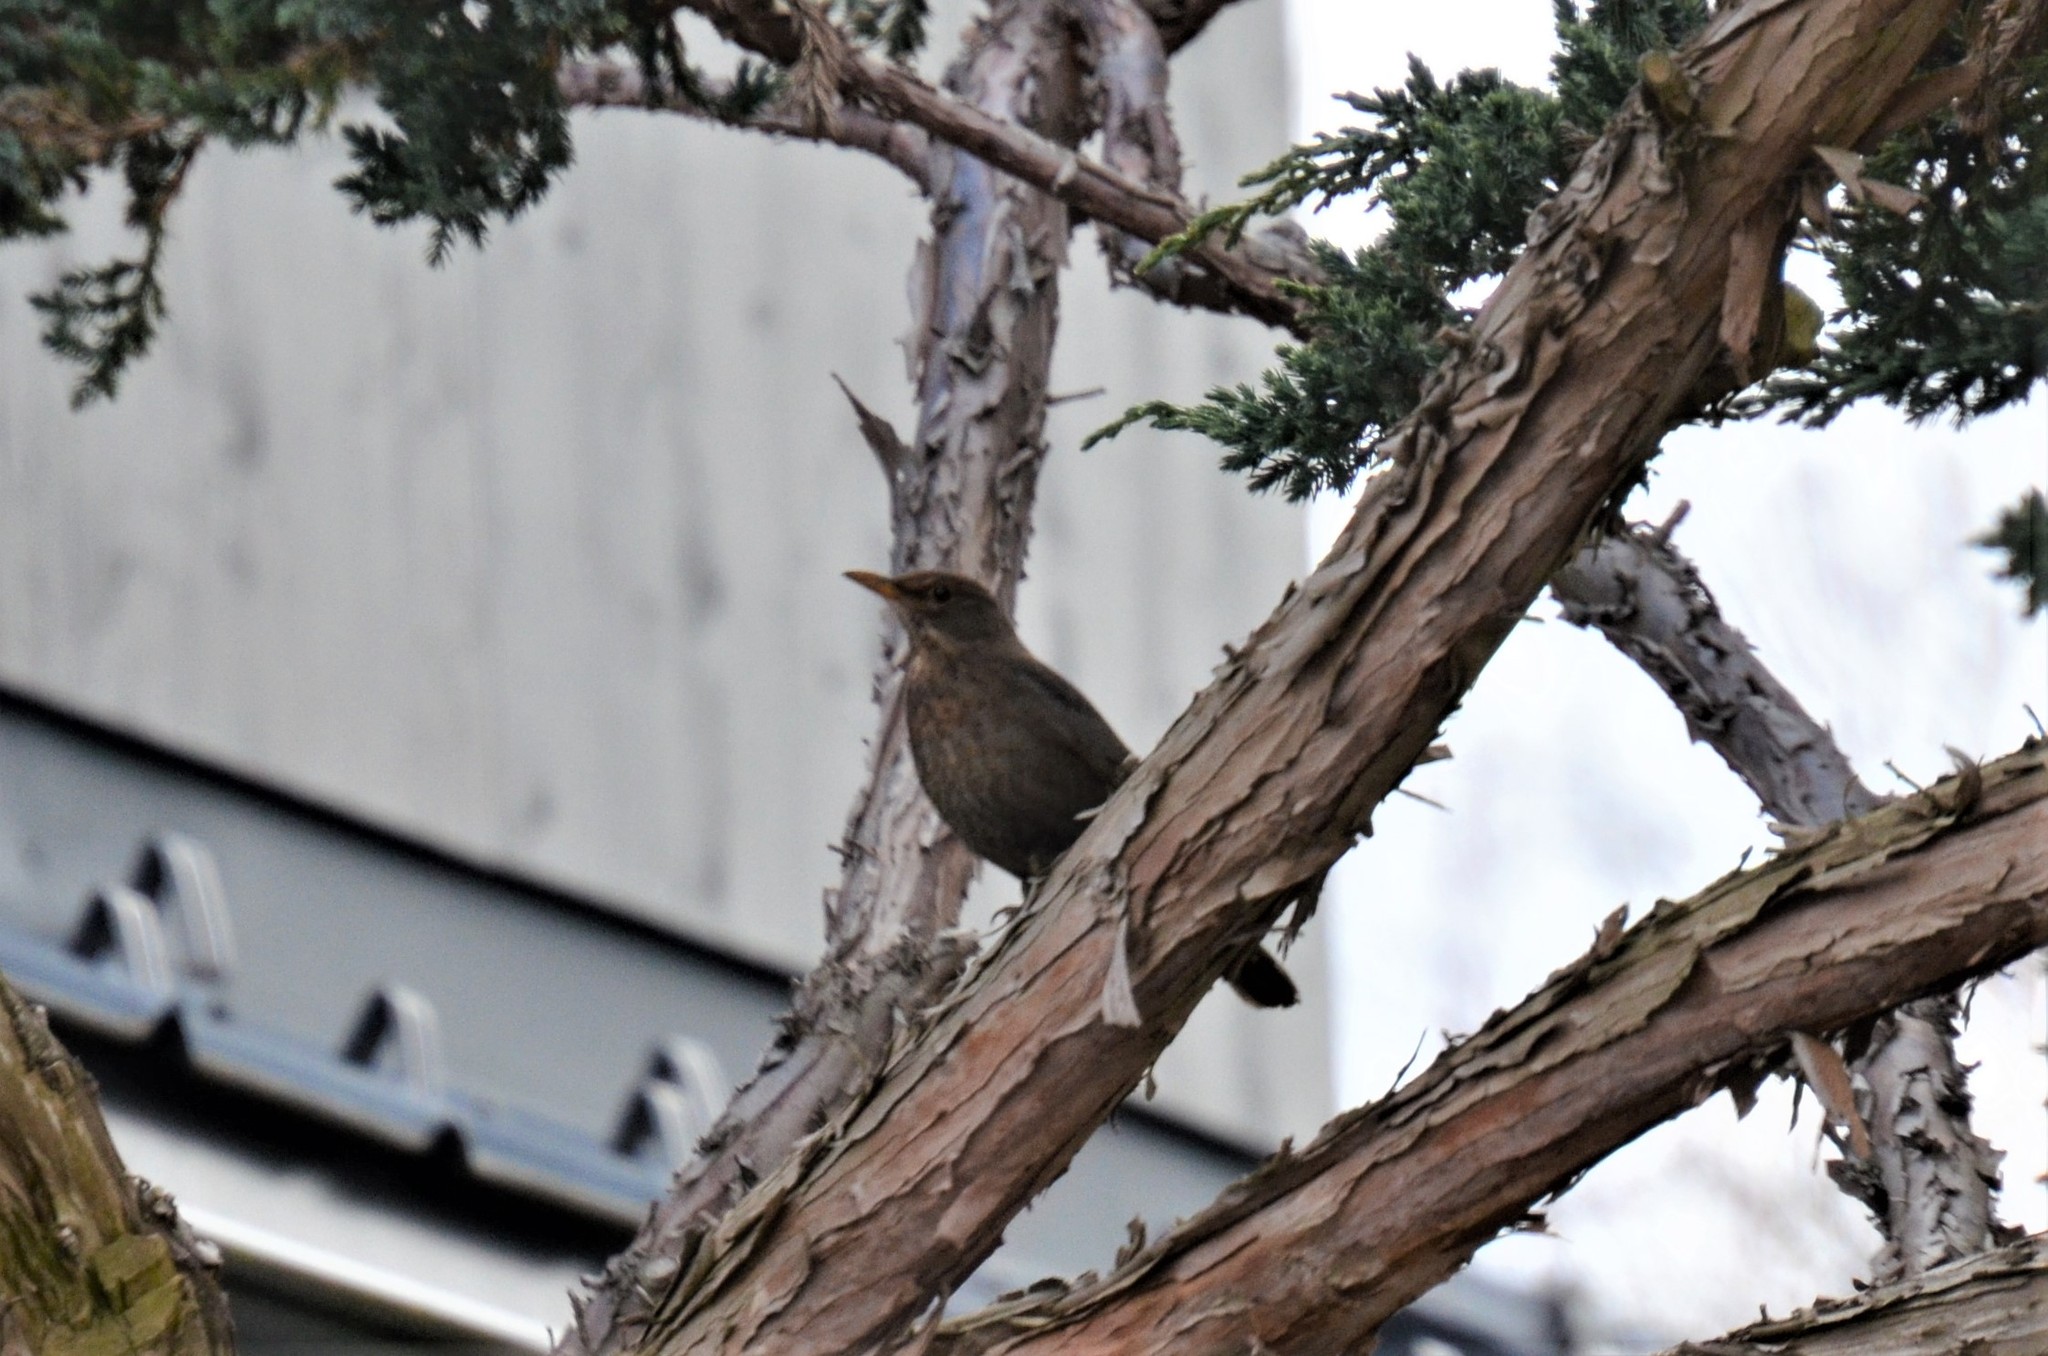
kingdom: Animalia
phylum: Chordata
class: Aves
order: Passeriformes
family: Turdidae
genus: Turdus
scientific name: Turdus merula
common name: Common blackbird
